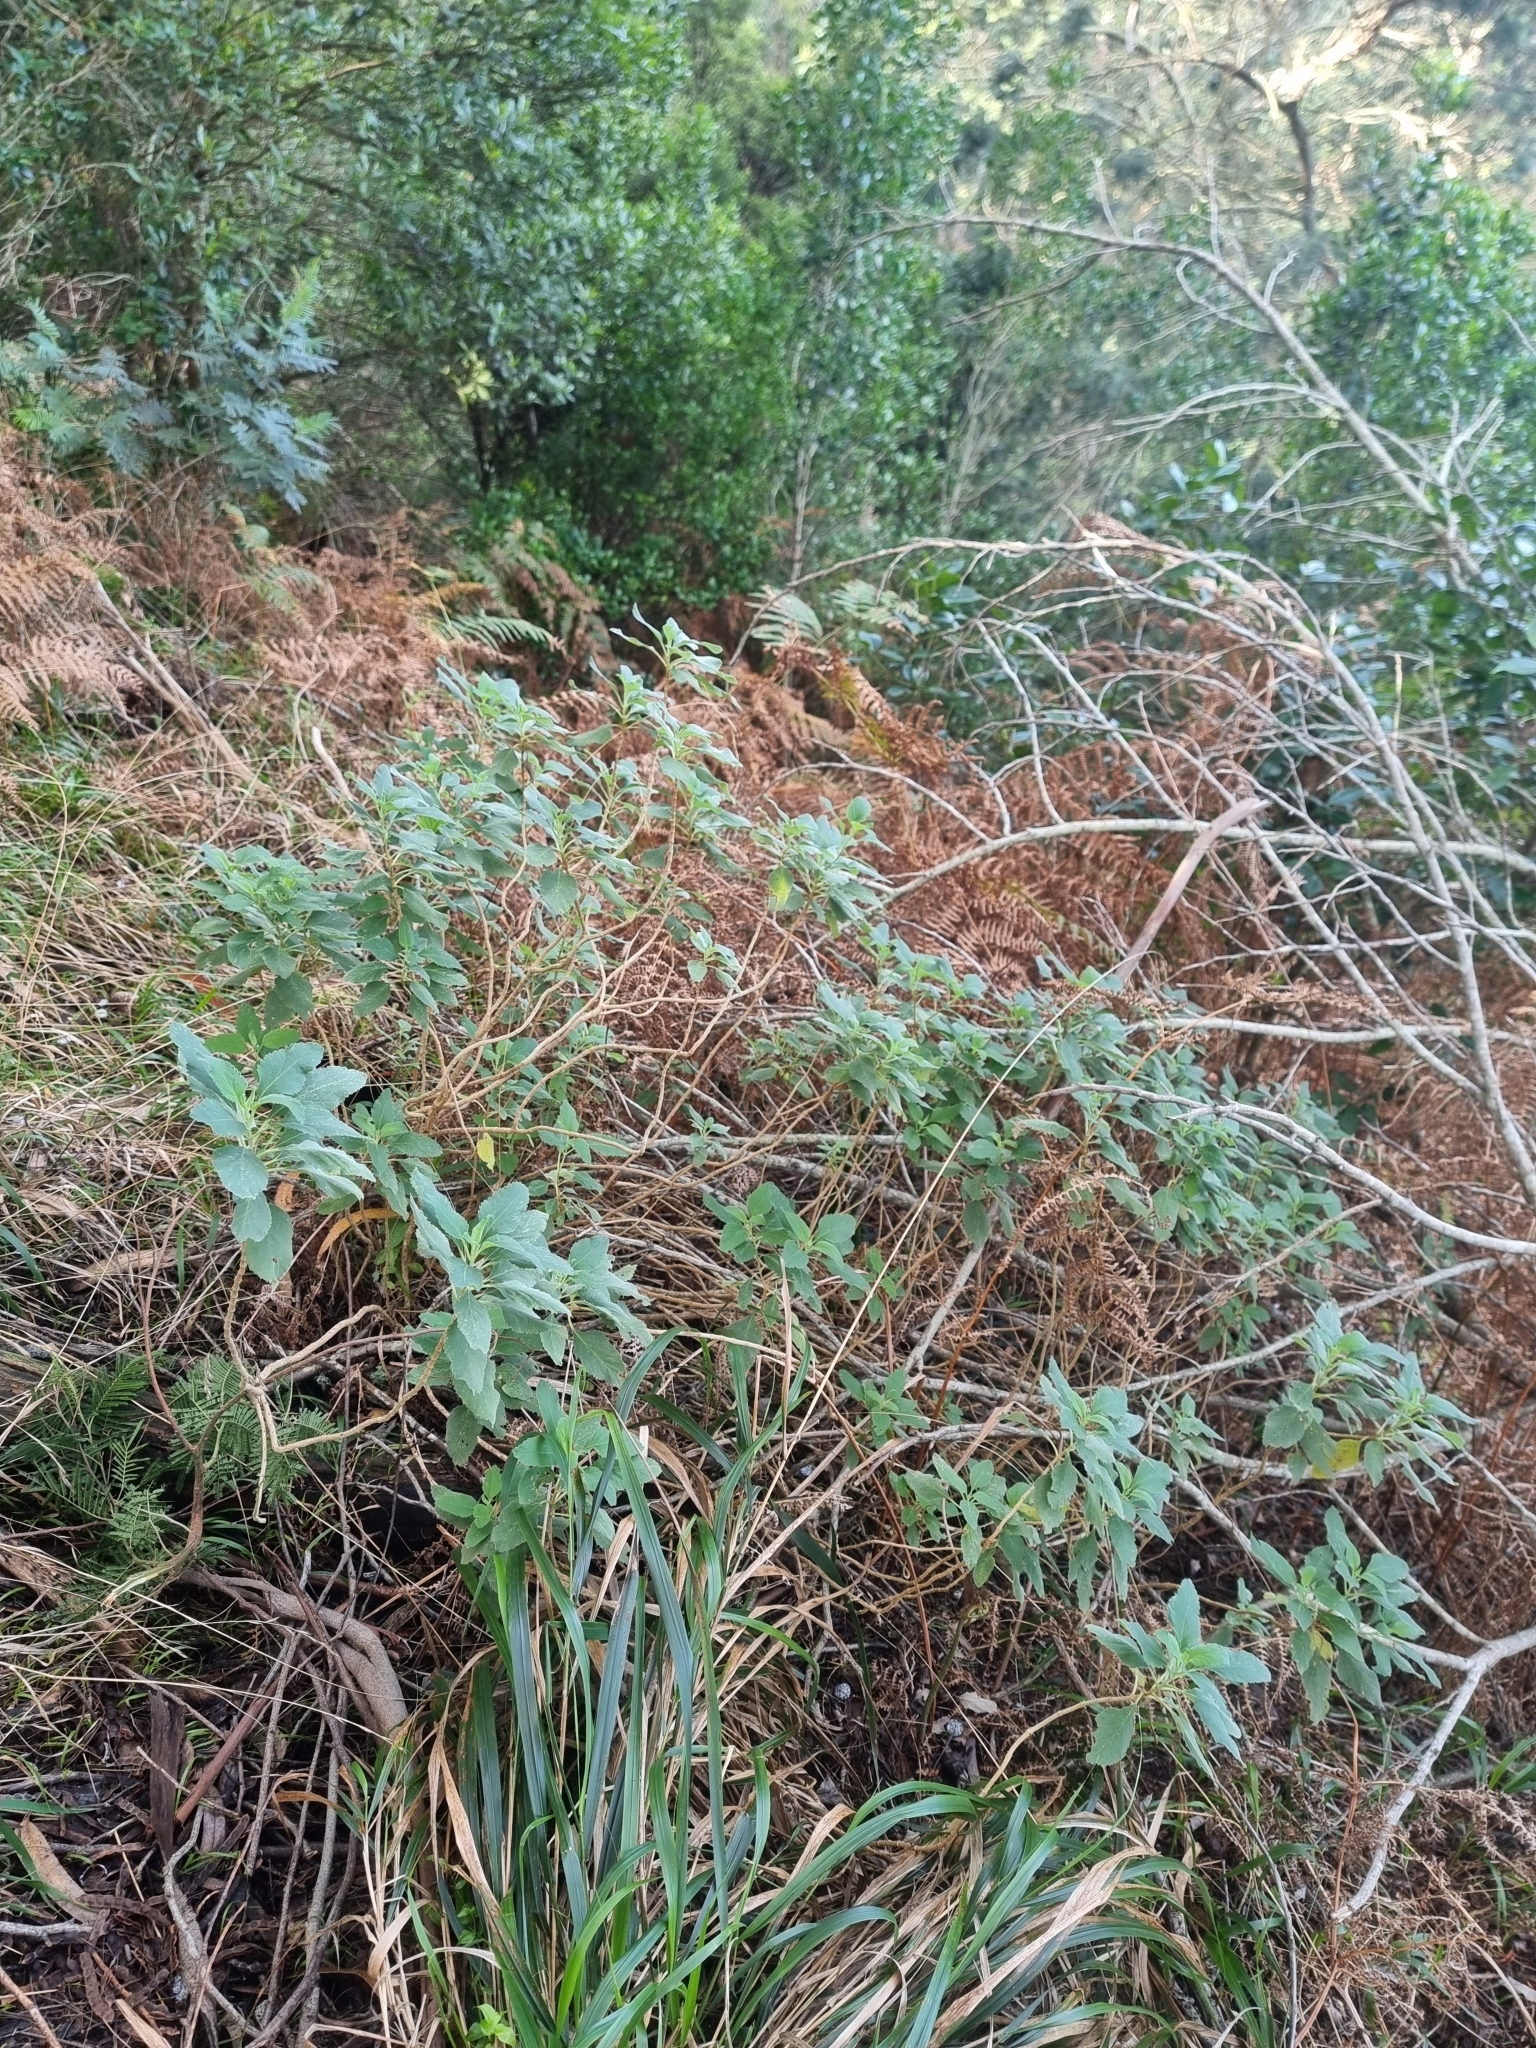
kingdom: Plantae
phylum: Tracheophyta
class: Magnoliopsida
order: Lamiales
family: Lamiaceae
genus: Teucrium
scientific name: Teucrium betonicum
